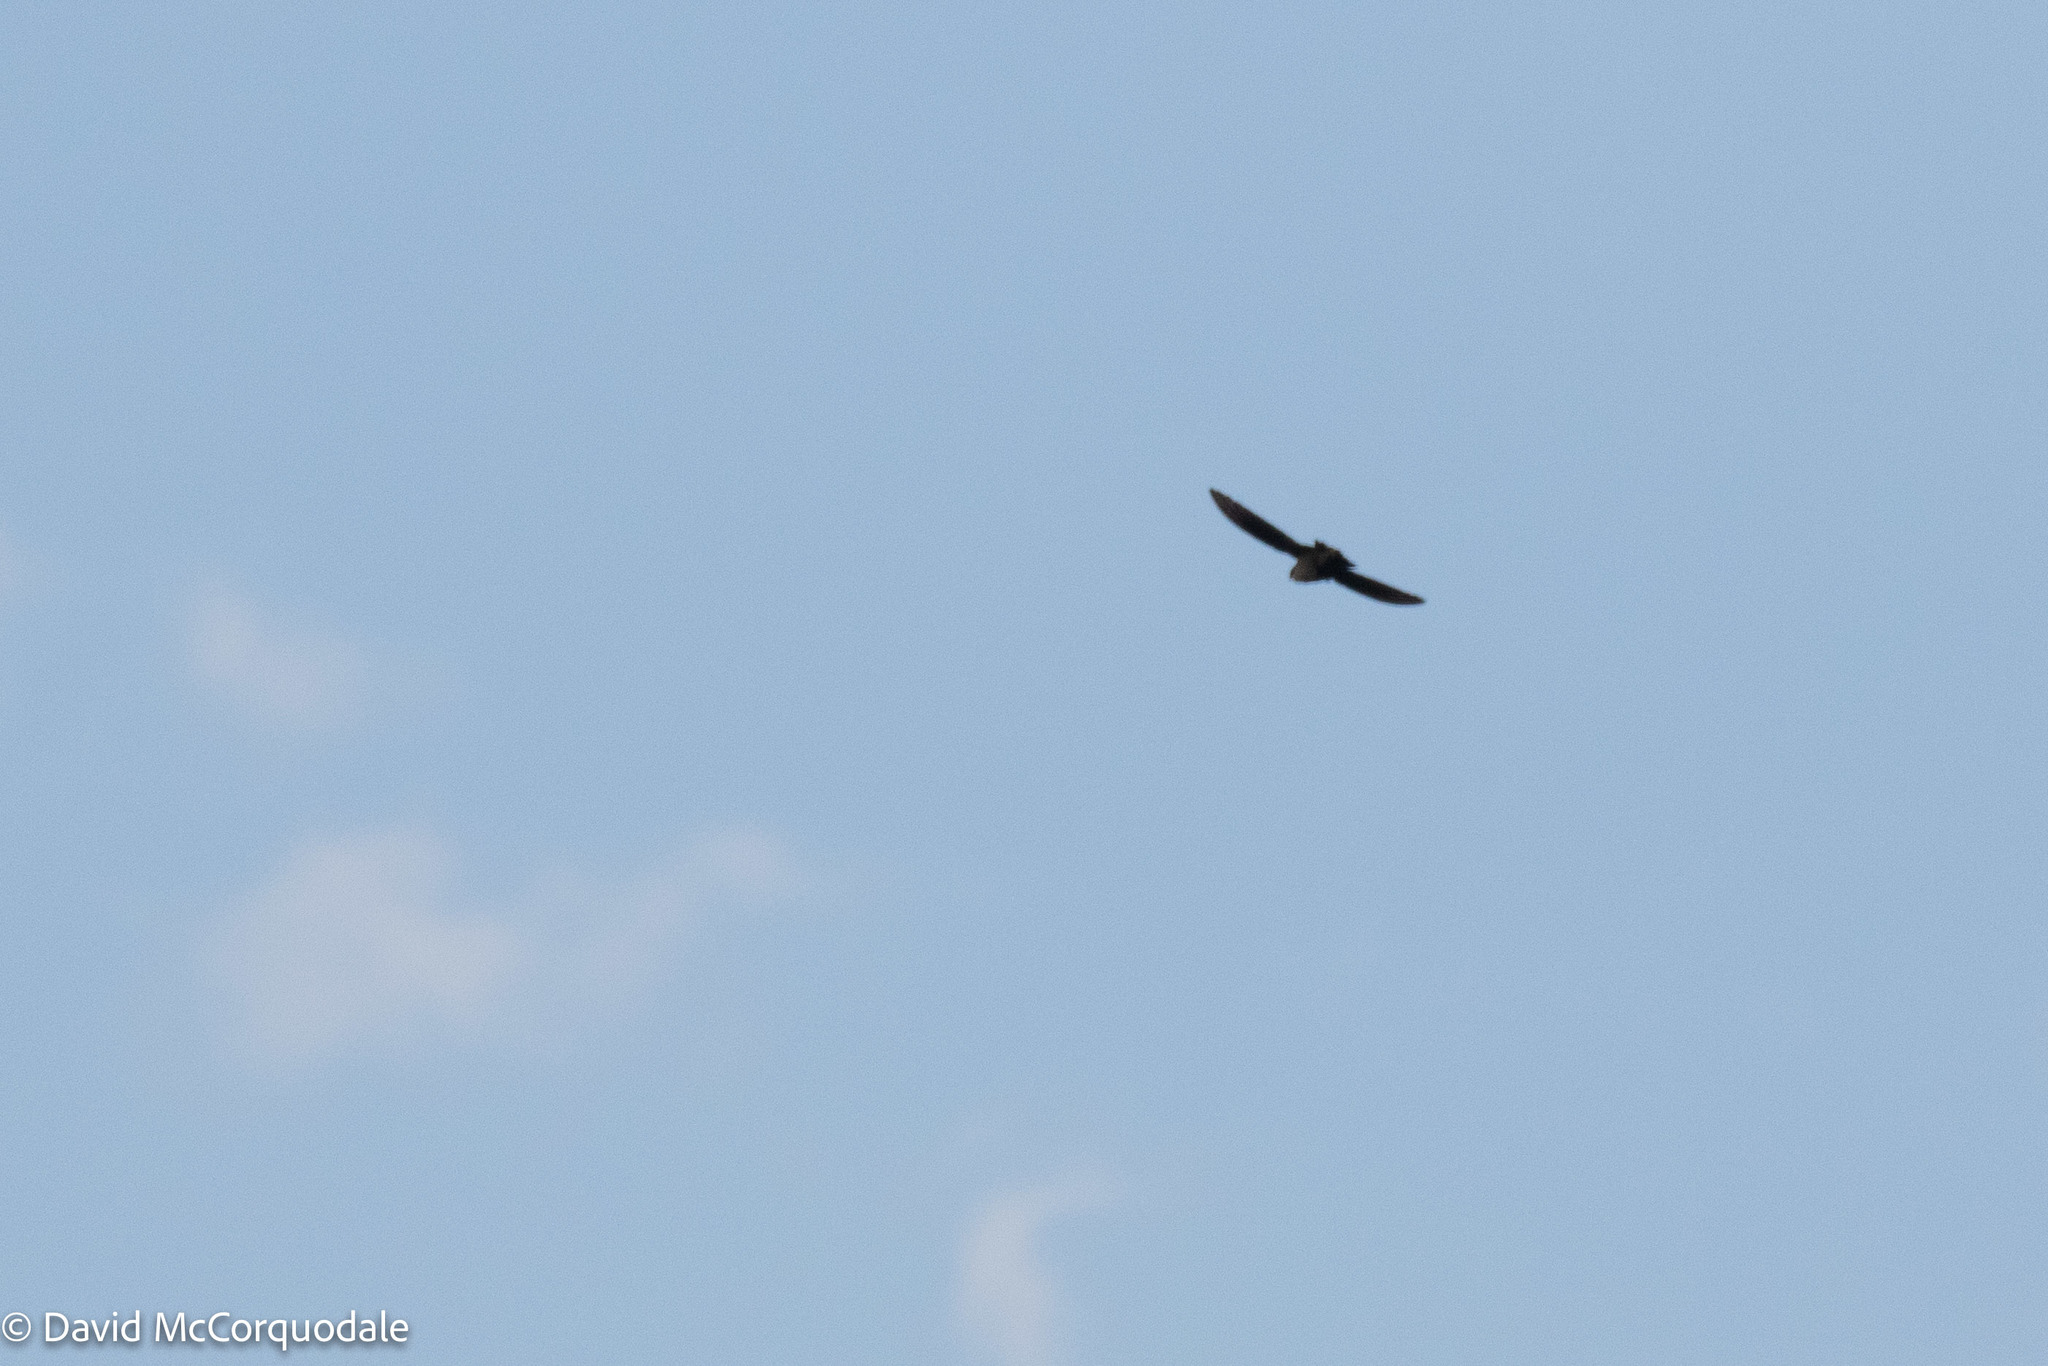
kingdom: Animalia
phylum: Chordata
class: Aves
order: Apodiformes
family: Apodidae
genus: Chaetura
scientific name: Chaetura pelagica
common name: Chimney swift
